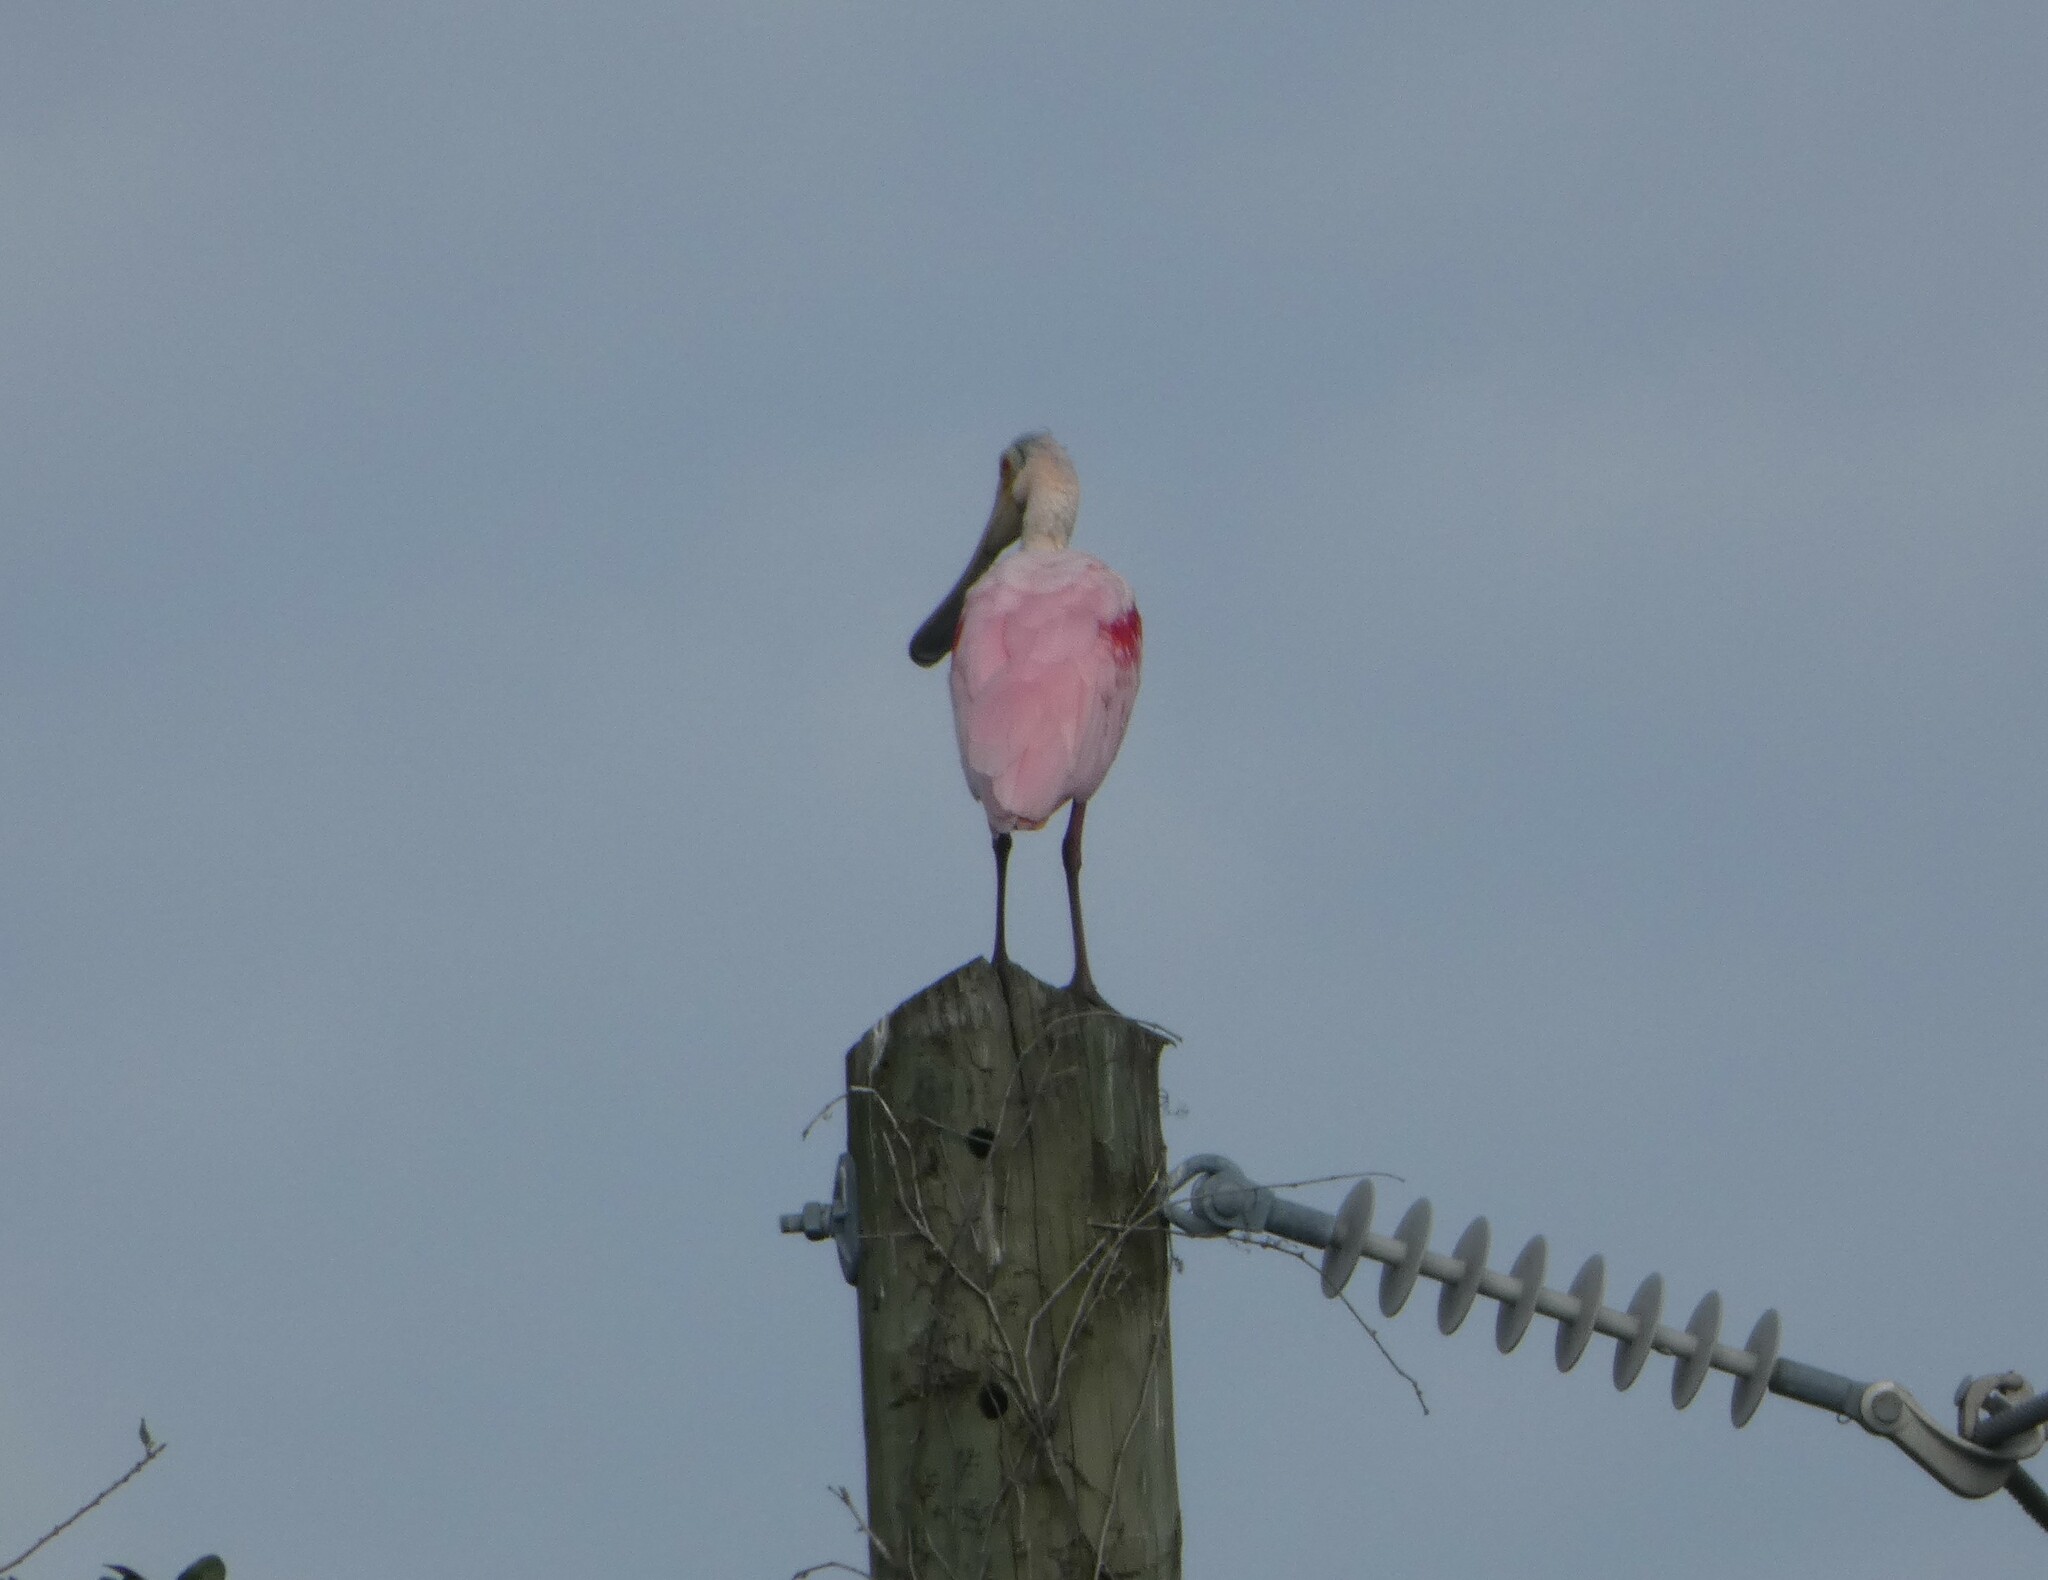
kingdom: Animalia
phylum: Chordata
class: Aves
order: Pelecaniformes
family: Threskiornithidae
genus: Platalea
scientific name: Platalea ajaja
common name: Roseate spoonbill
